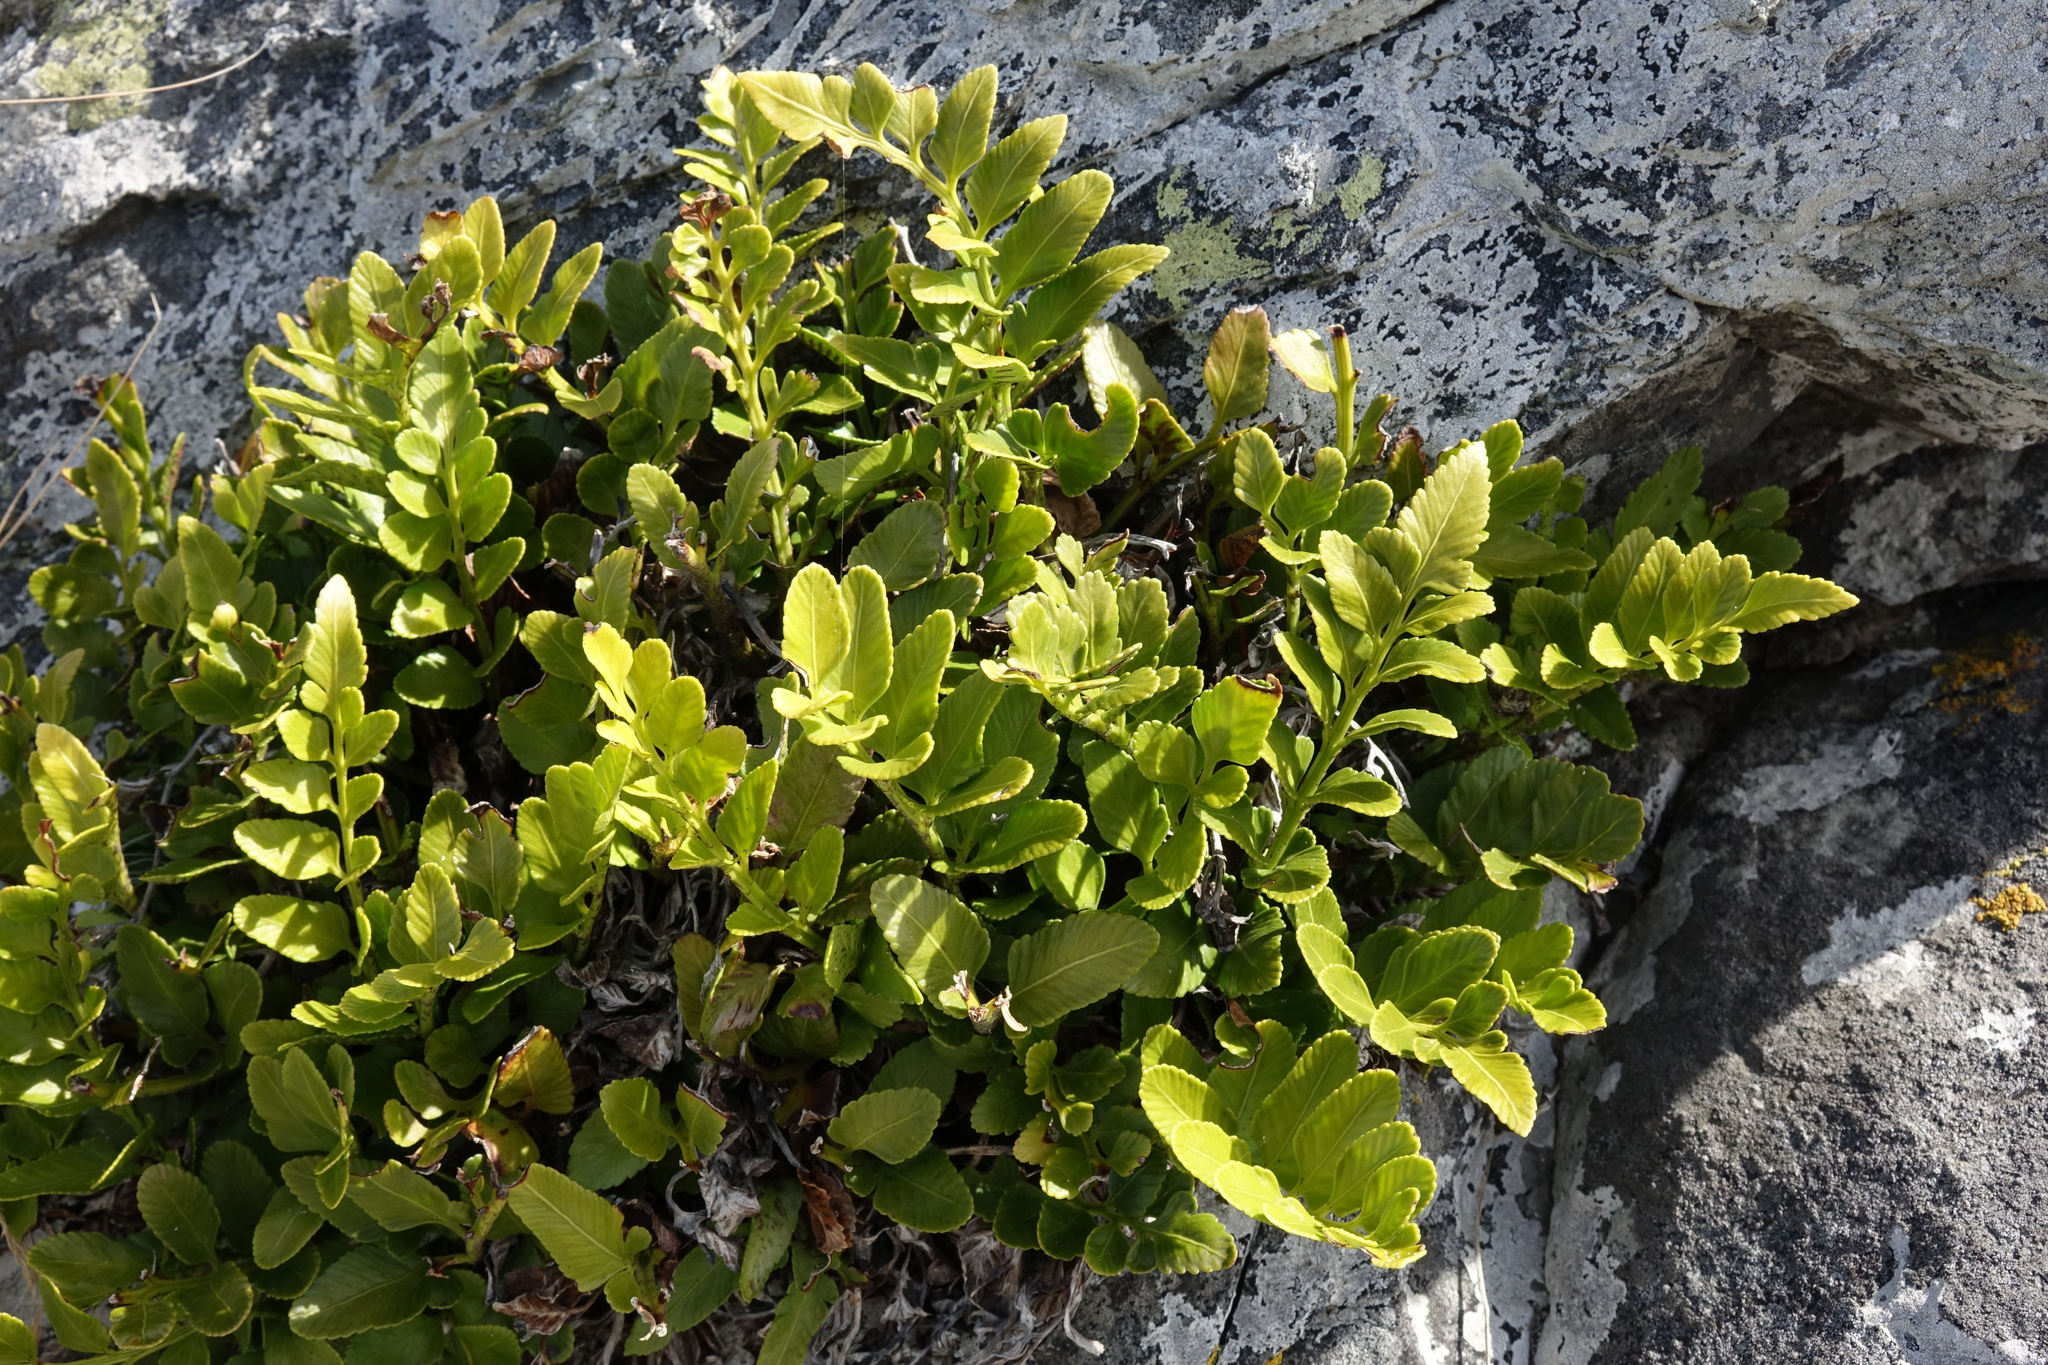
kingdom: Plantae
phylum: Tracheophyta
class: Polypodiopsida
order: Polypodiales
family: Aspleniaceae
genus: Asplenium
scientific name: Asplenium obtusatum
